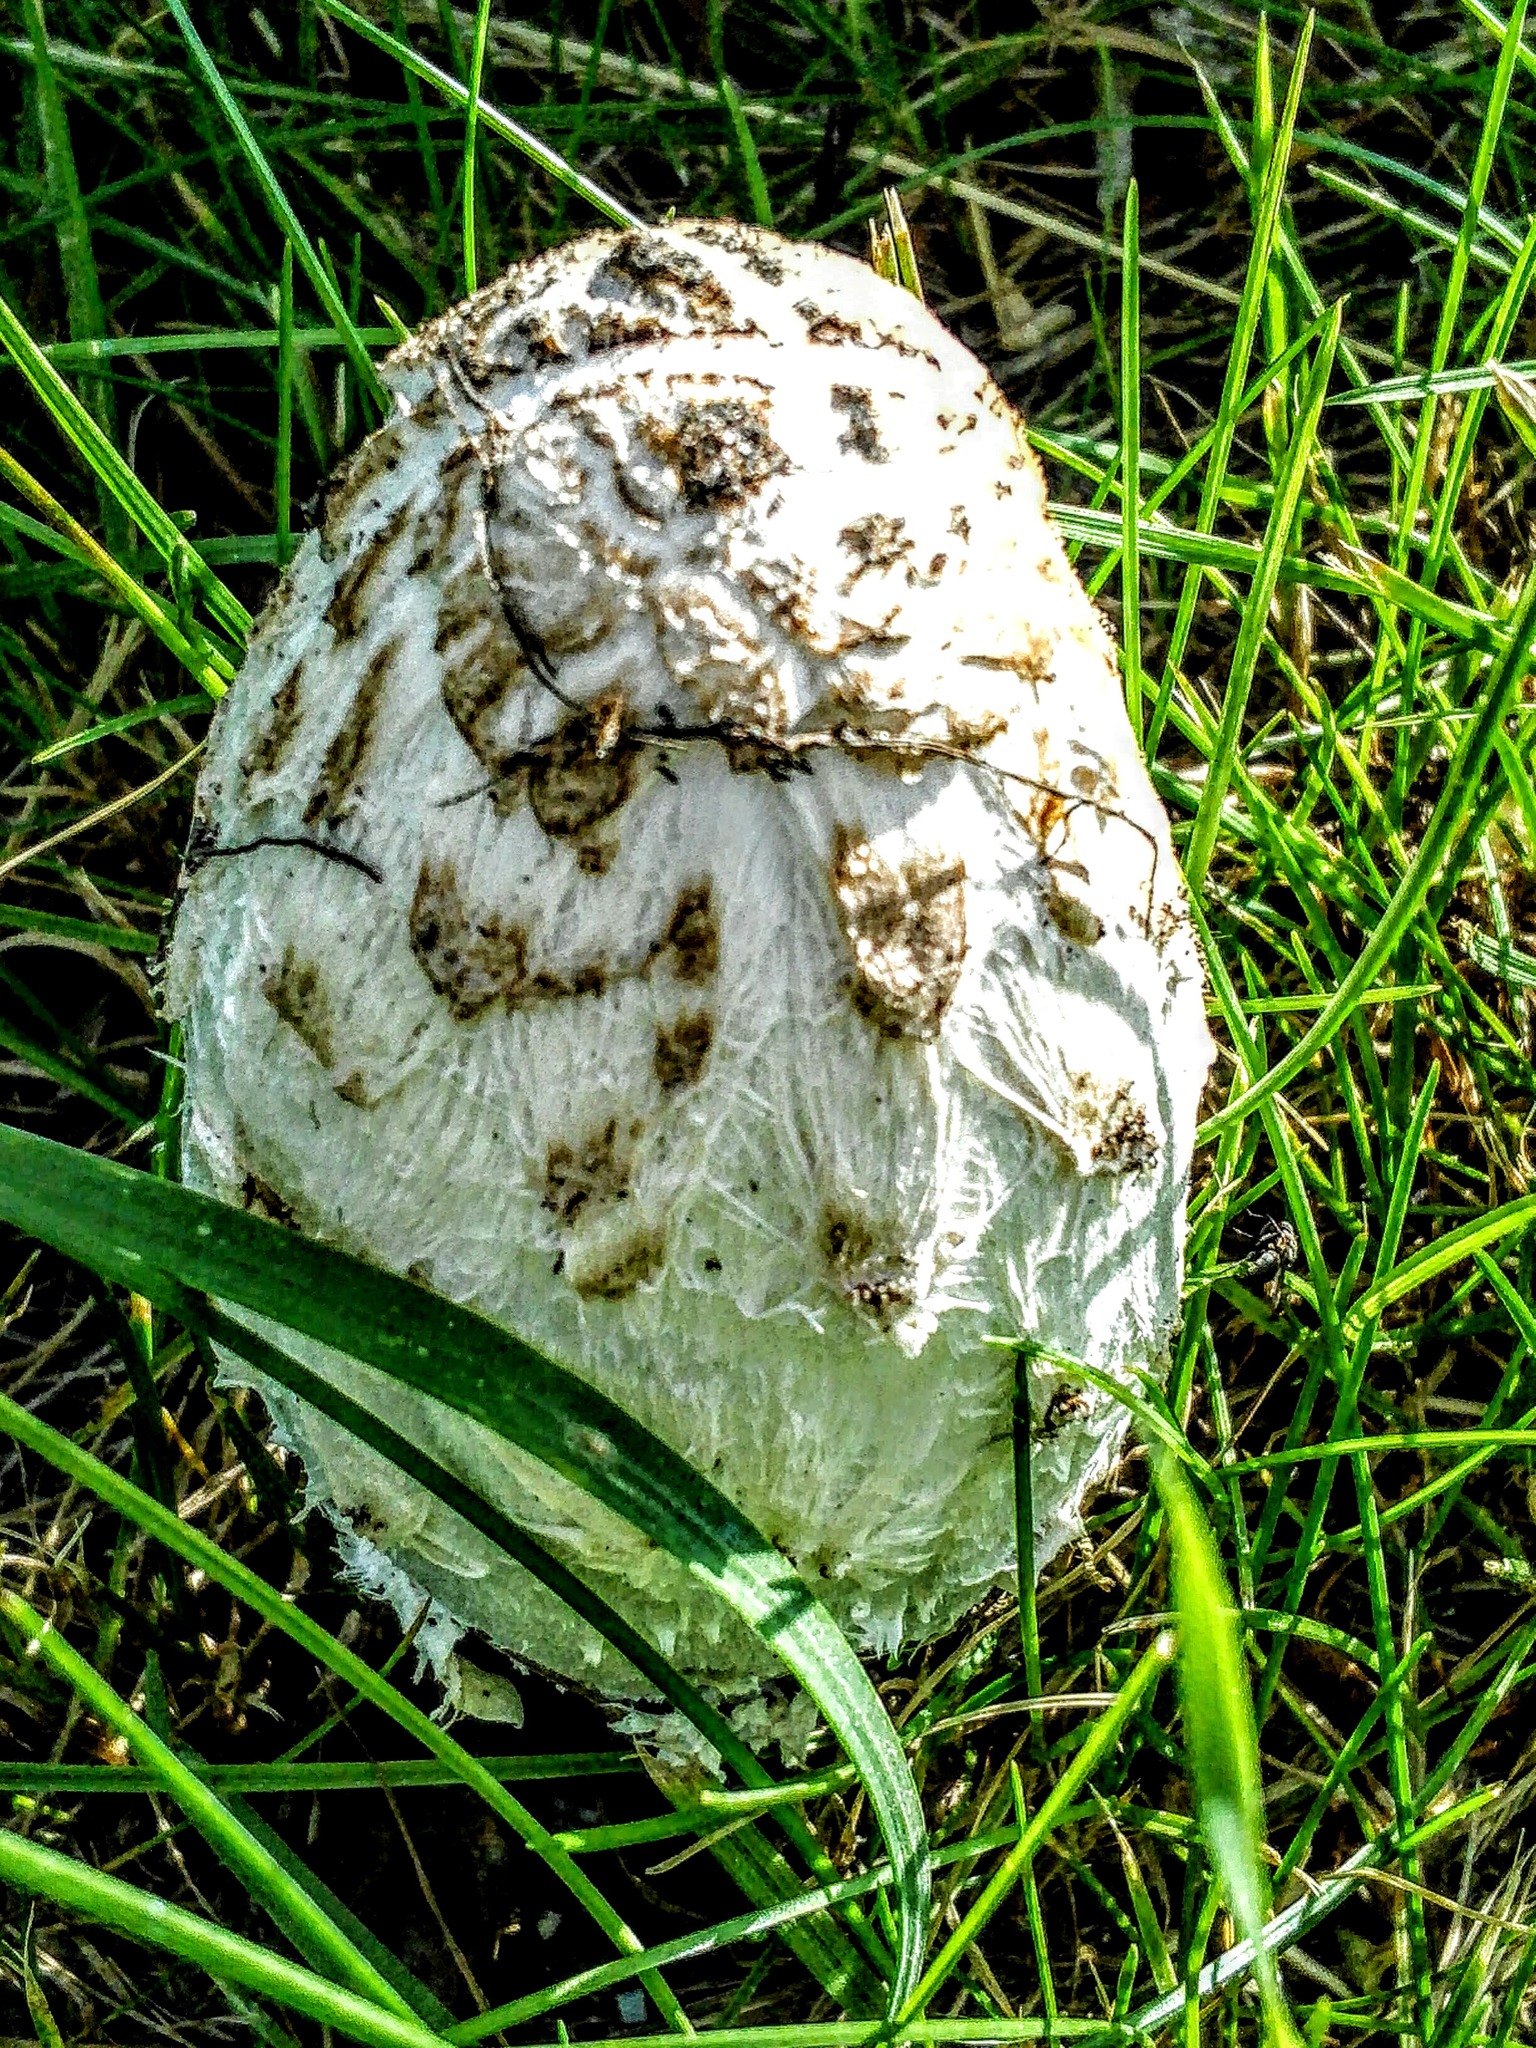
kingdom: Fungi
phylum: Basidiomycota
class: Agaricomycetes
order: Agaricales
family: Agaricaceae
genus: Coprinus
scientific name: Coprinus comatus
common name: Lawyer's wig
